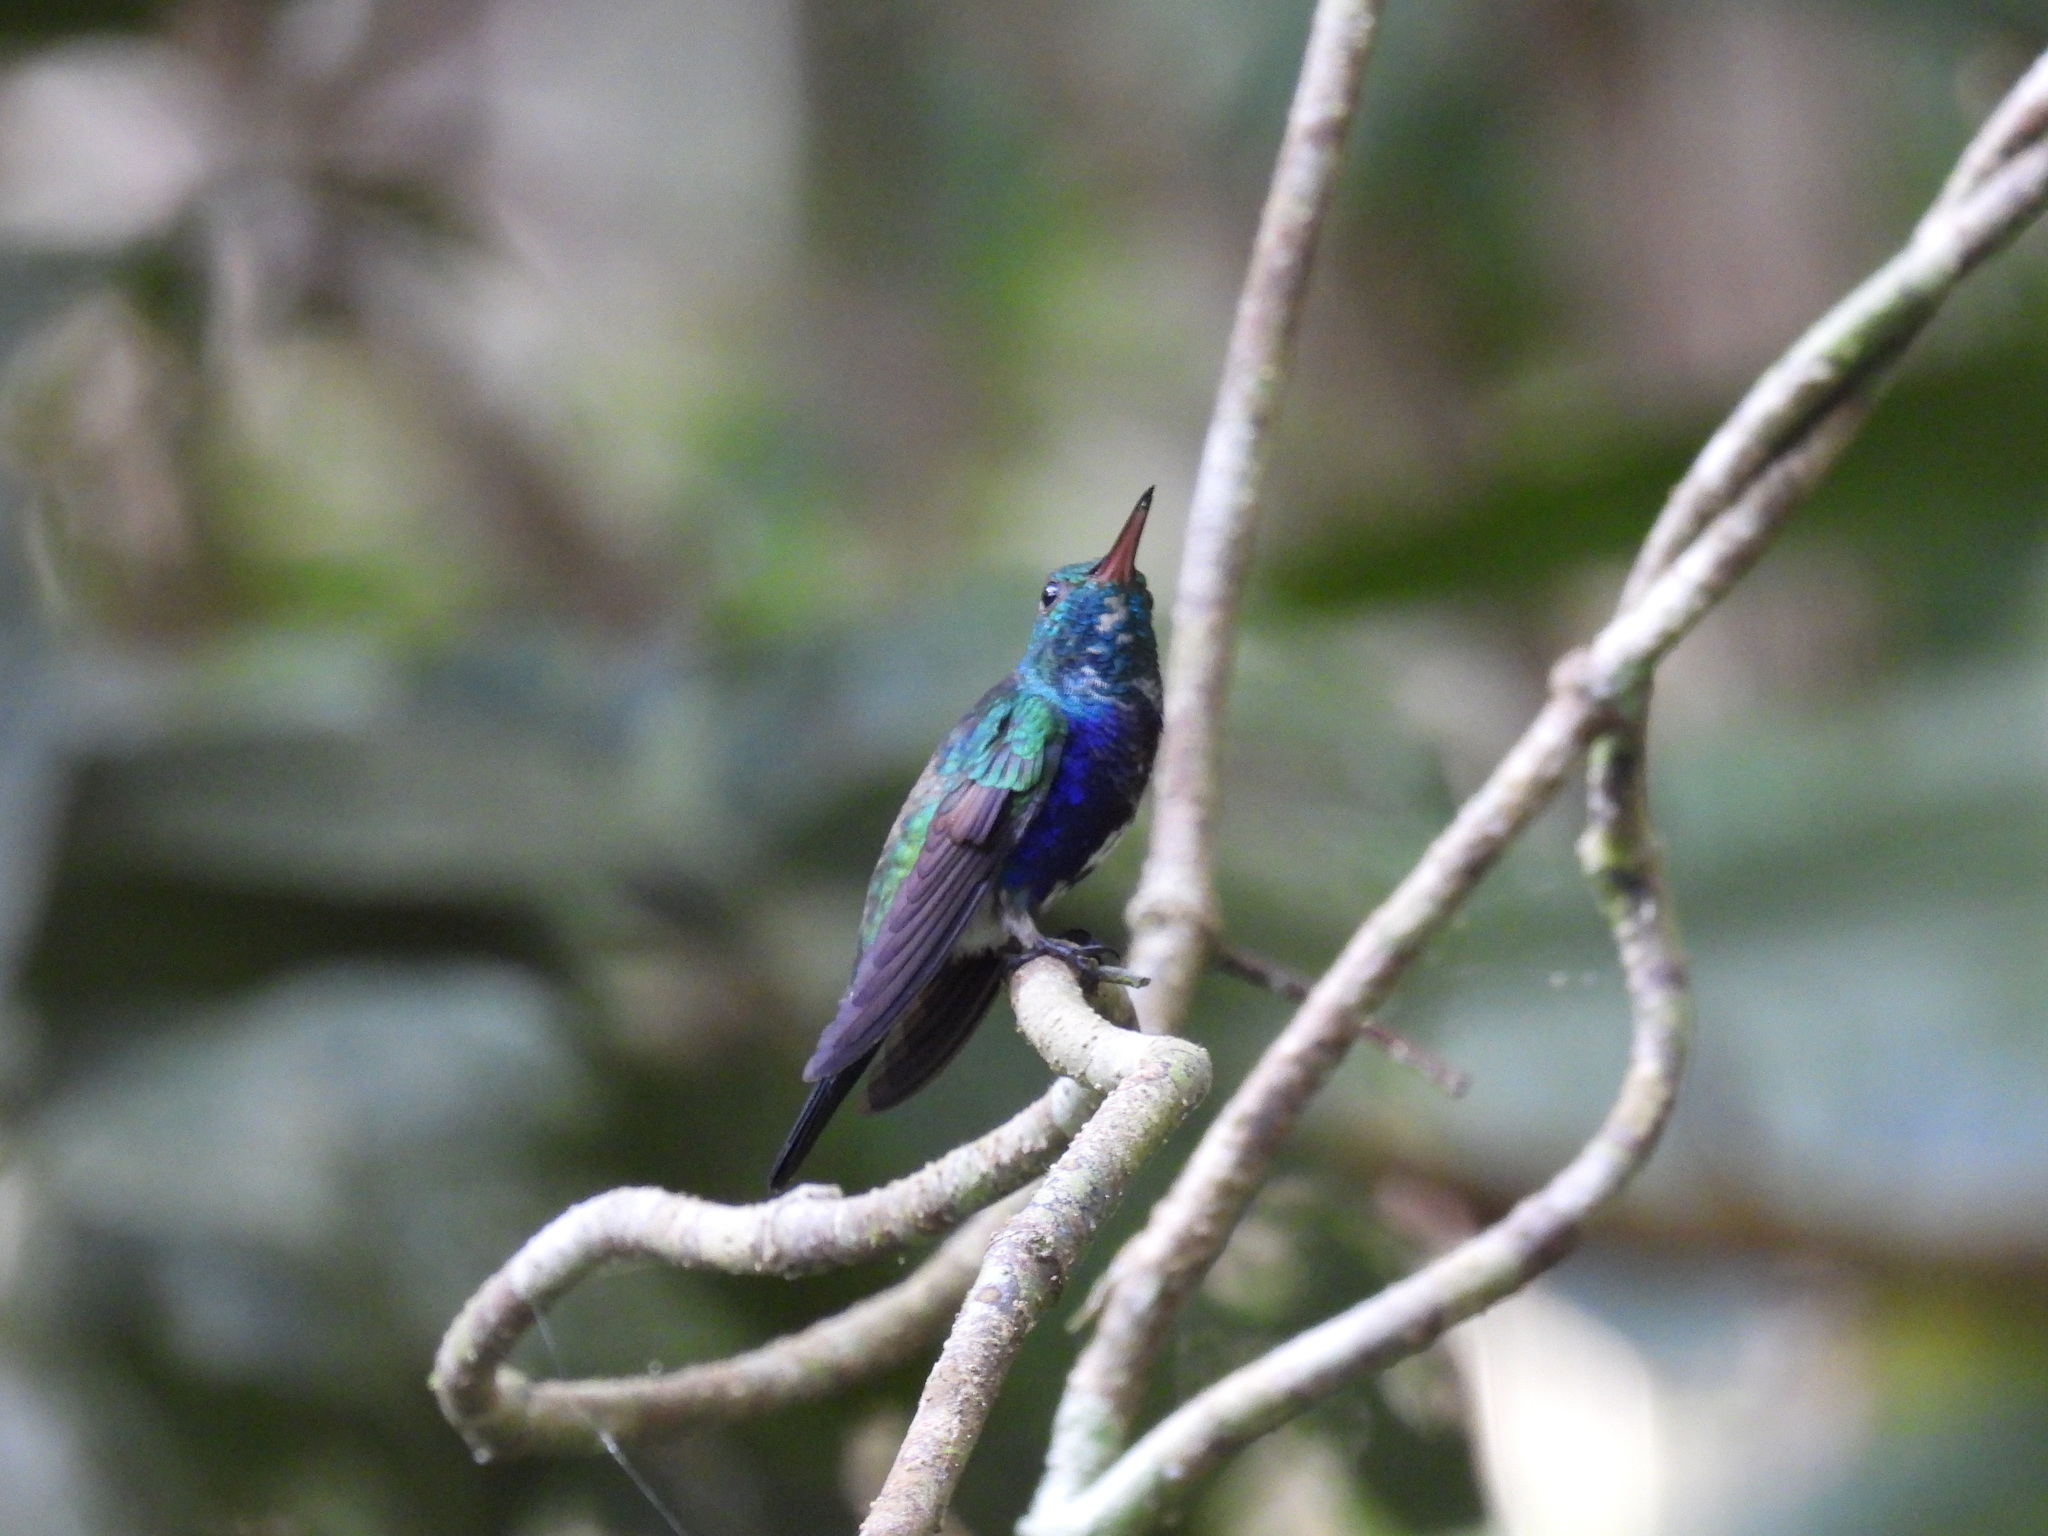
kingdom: Animalia
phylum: Chordata
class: Aves
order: Apodiformes
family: Trochilidae
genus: Chlorestes
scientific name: Chlorestes julie
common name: Violet-bellied hummingbird
